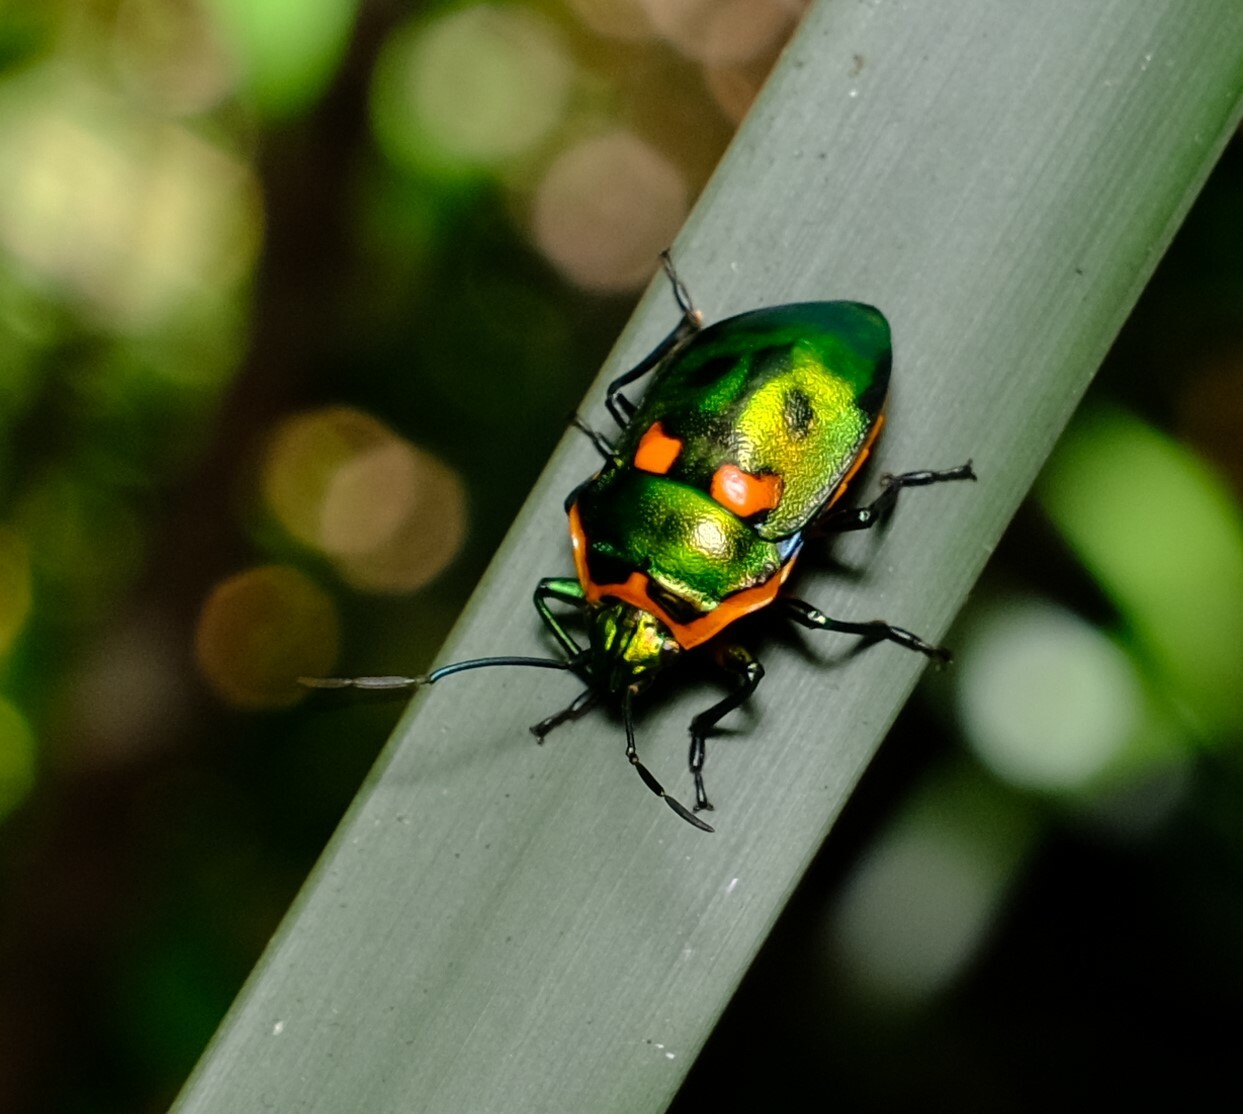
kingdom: Animalia
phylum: Arthropoda
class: Insecta
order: Hemiptera
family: Scutelleridae
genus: Scutiphora
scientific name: Scutiphora pedicellata
